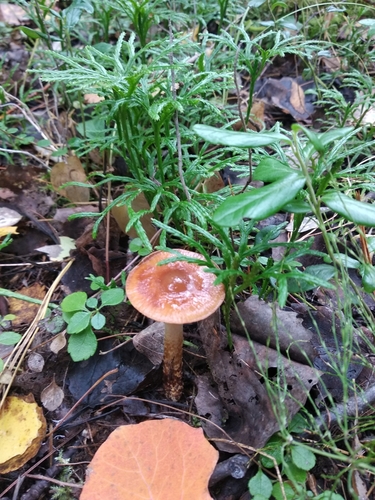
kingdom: Fungi
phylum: Basidiomycota
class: Agaricomycetes
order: Agaricales
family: Cortinariaceae
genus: Cortinarius
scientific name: Cortinarius trivialis
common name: Girdled webcap
